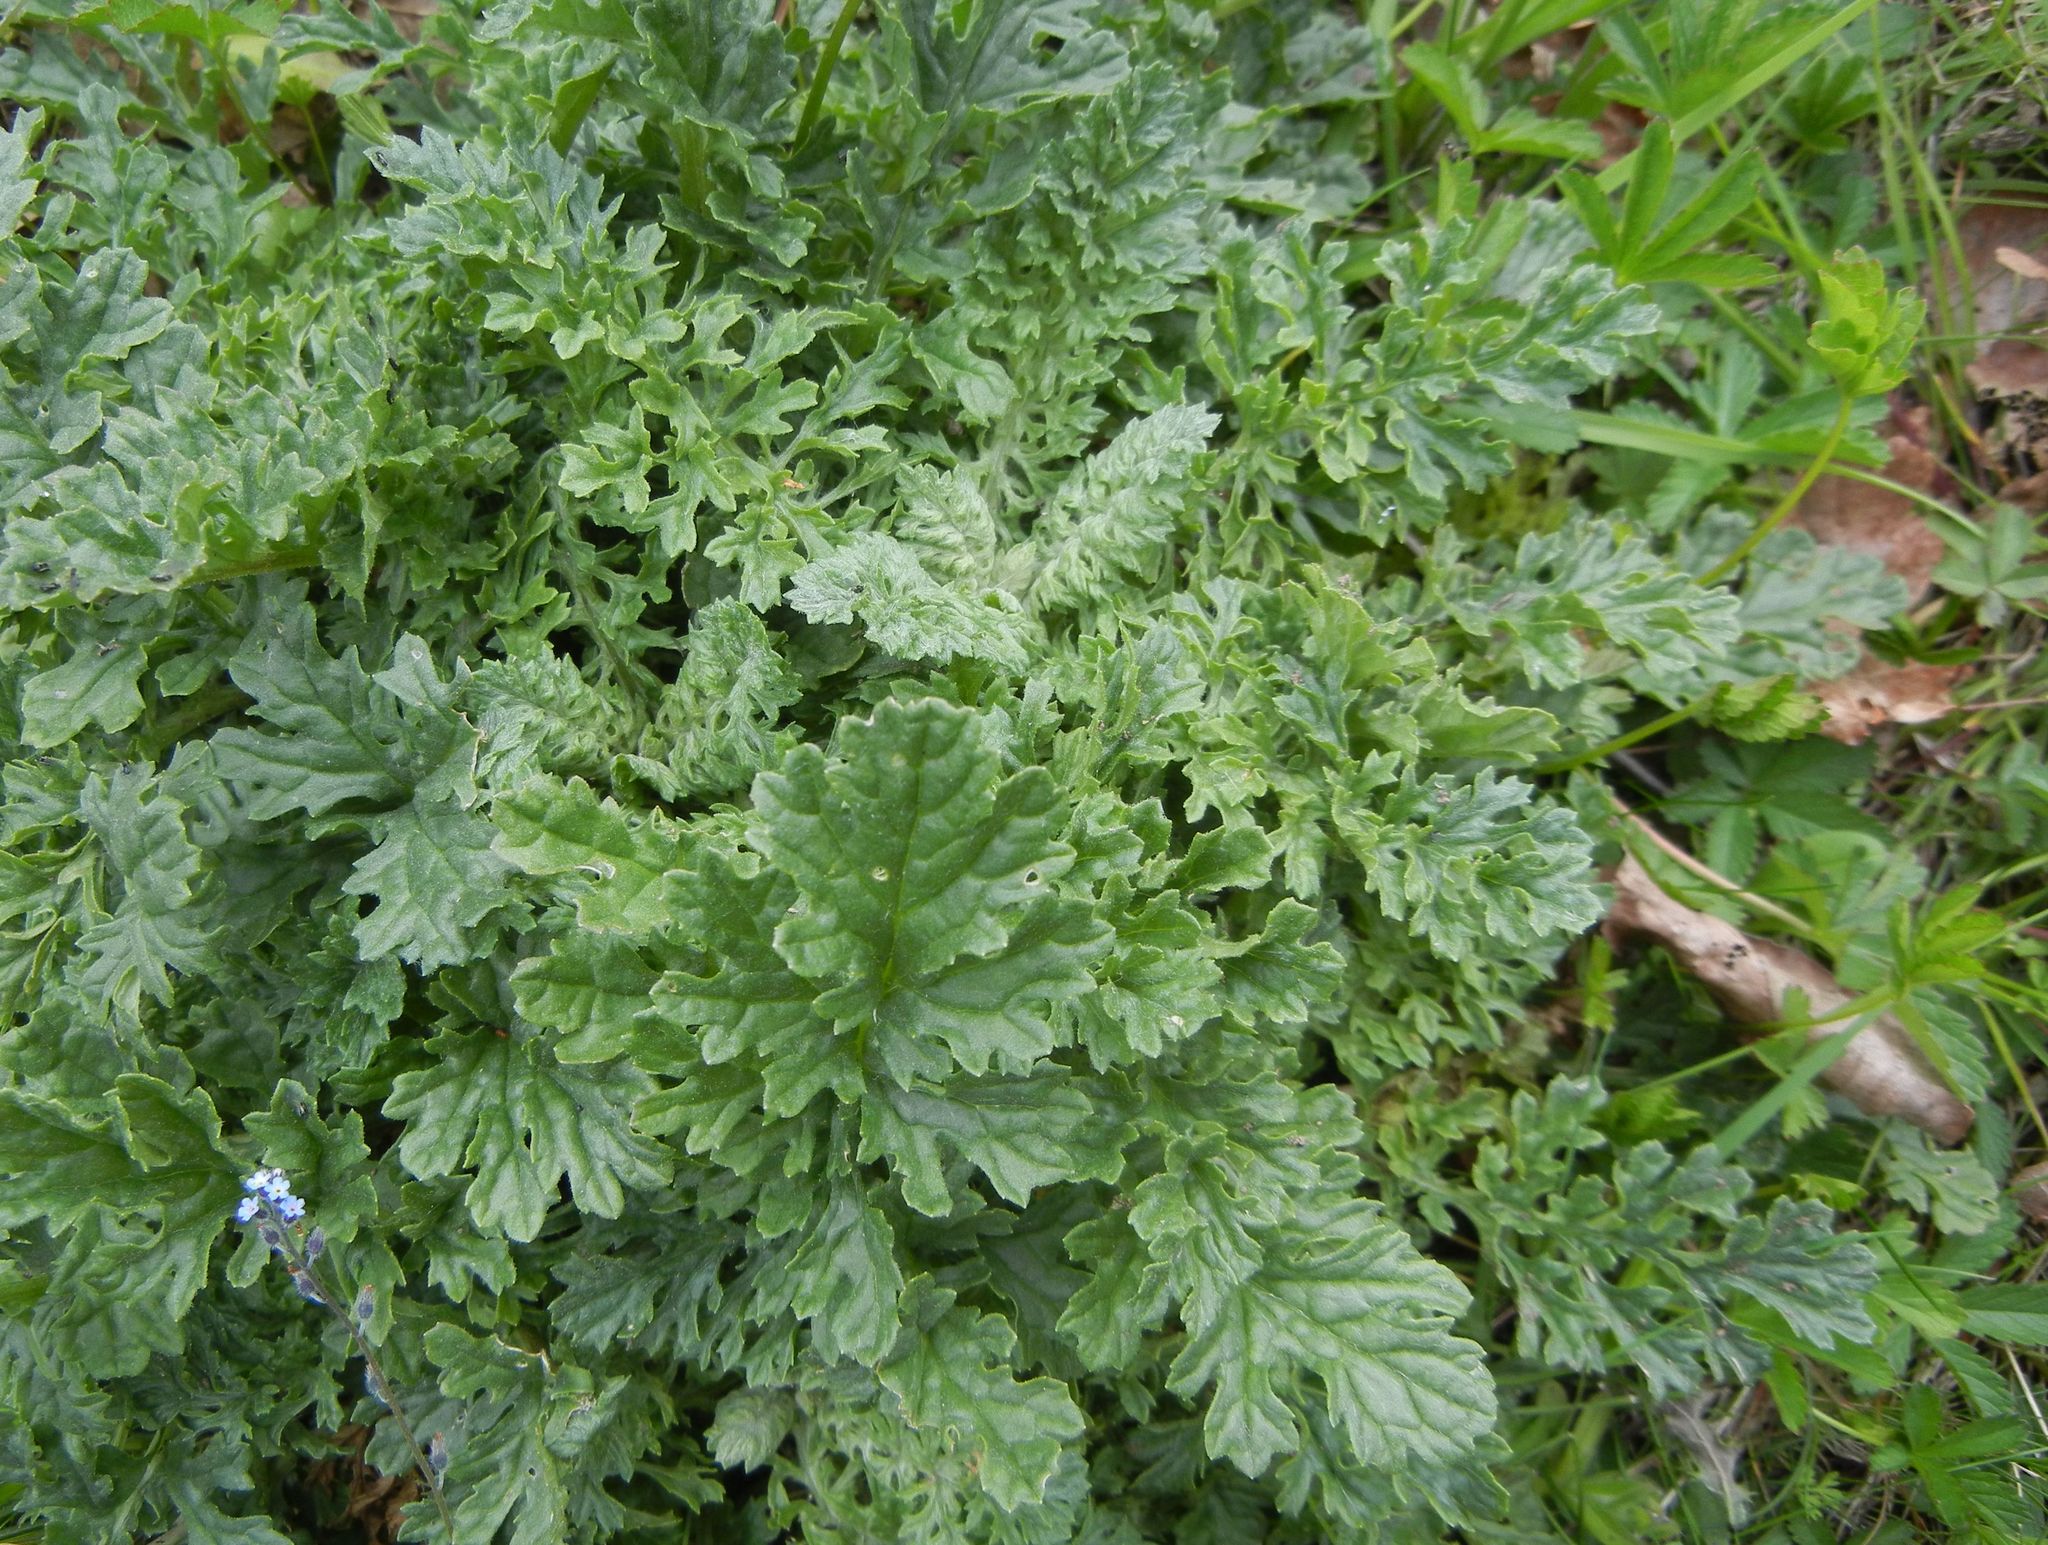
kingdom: Plantae
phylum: Tracheophyta
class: Magnoliopsida
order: Asterales
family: Asteraceae
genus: Jacobaea
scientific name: Jacobaea vulgaris
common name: Stinking willie
